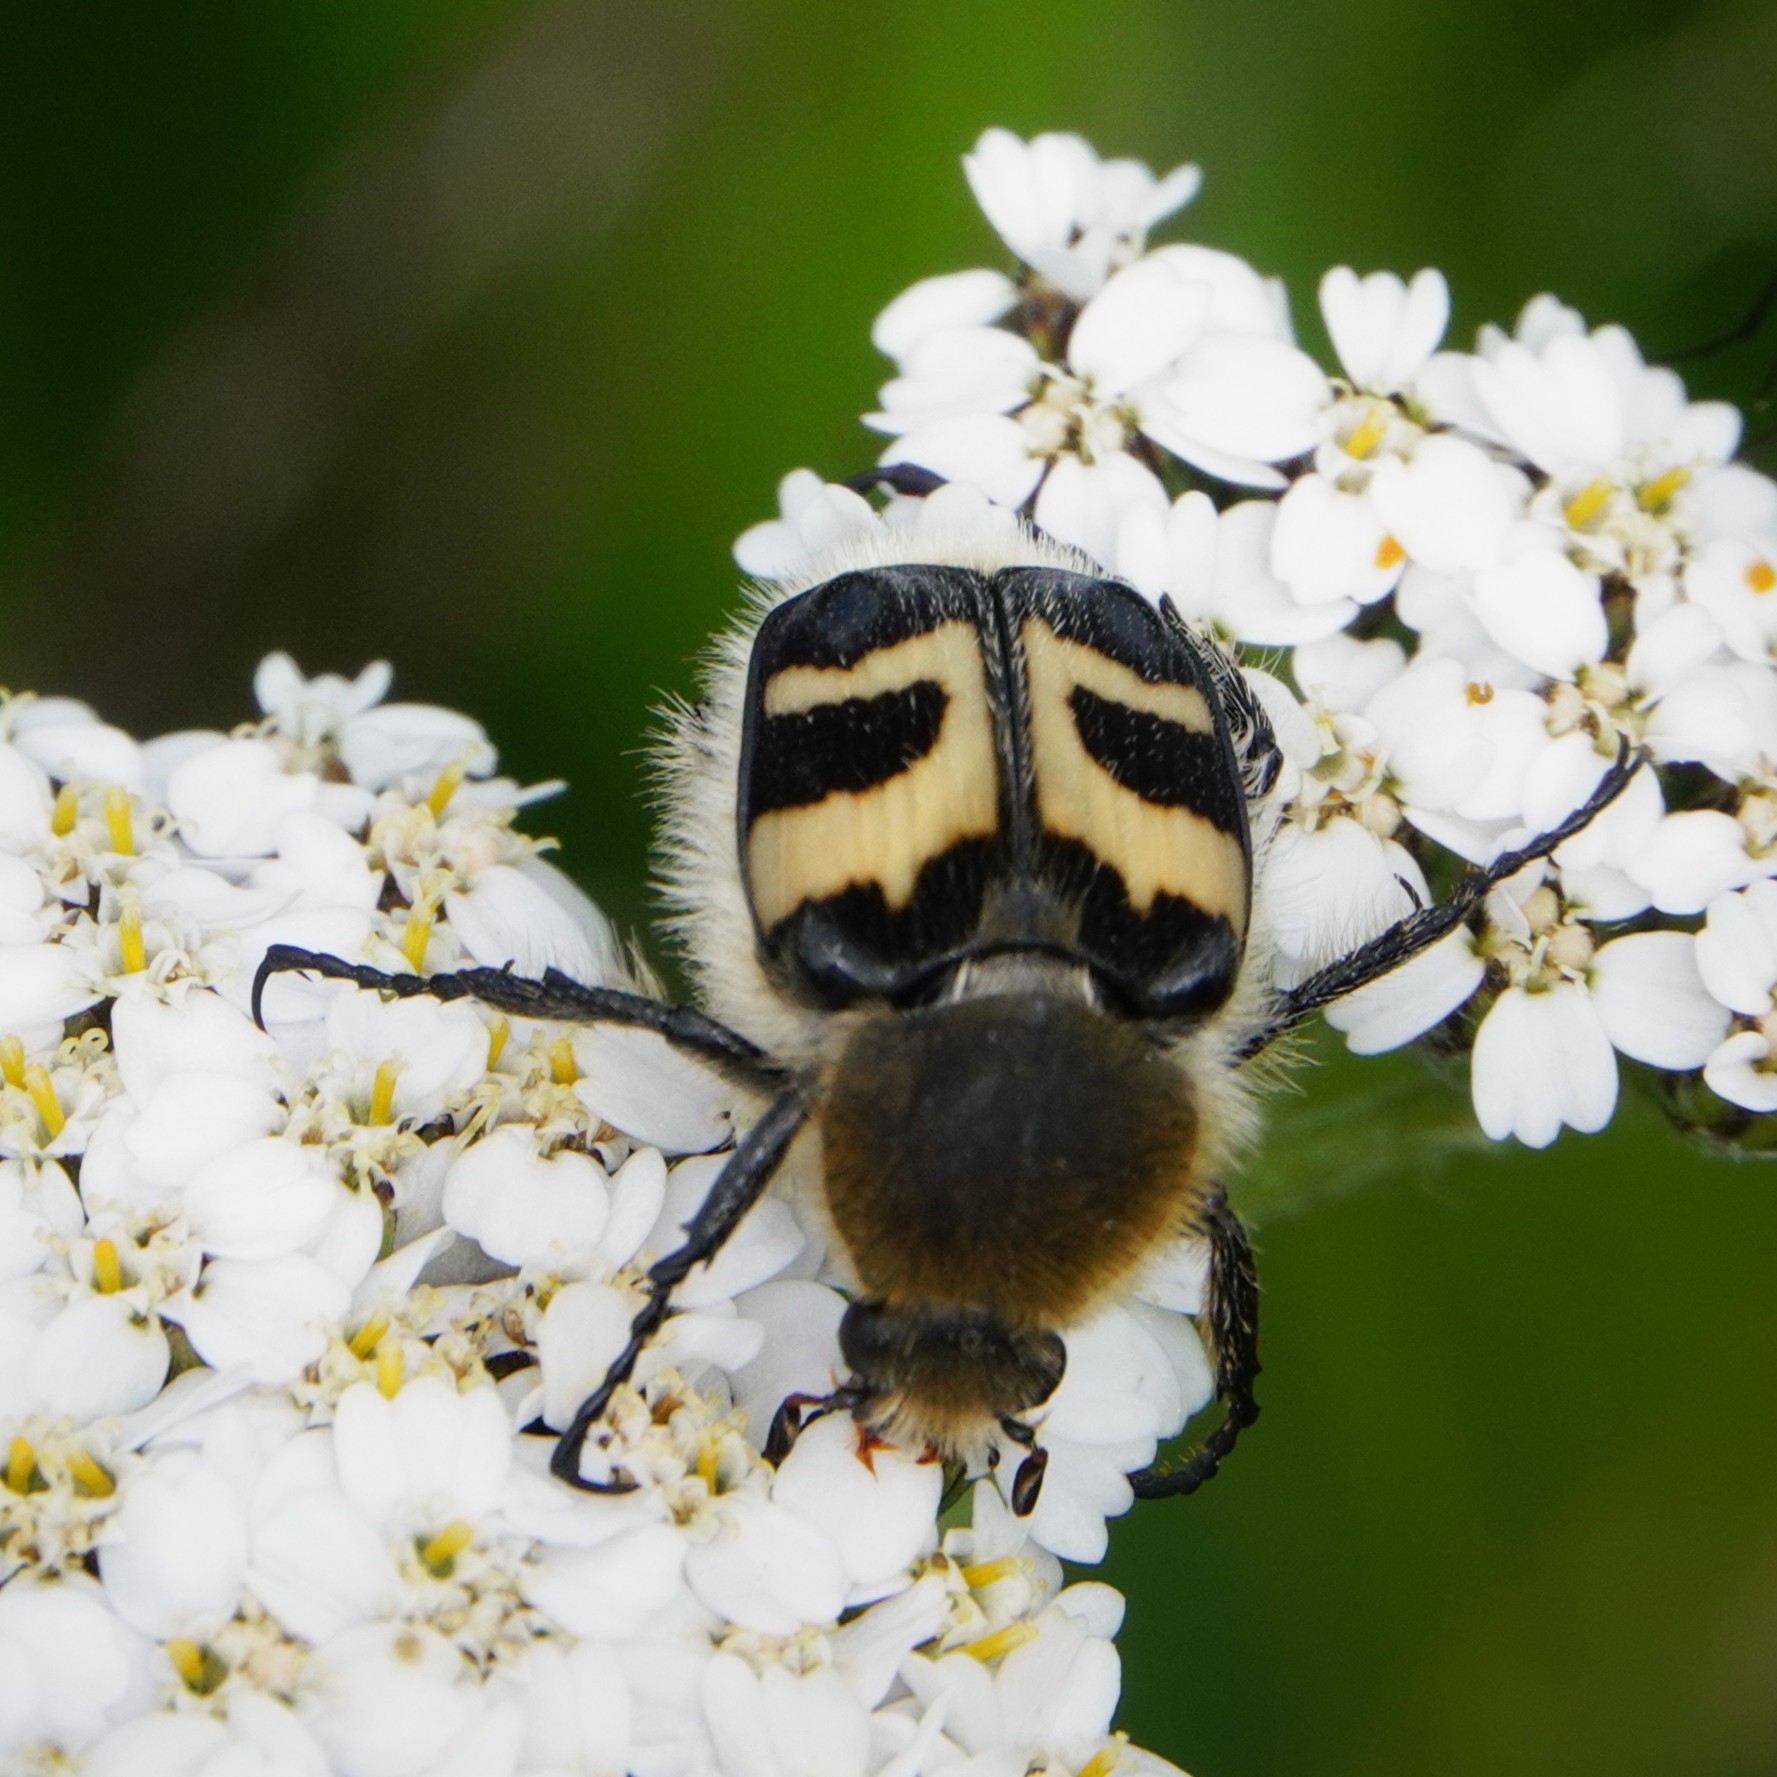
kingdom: Animalia
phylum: Arthropoda
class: Insecta
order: Coleoptera
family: Scarabaeidae
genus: Trichius
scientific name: Trichius fasciatus
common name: Bee beetle
